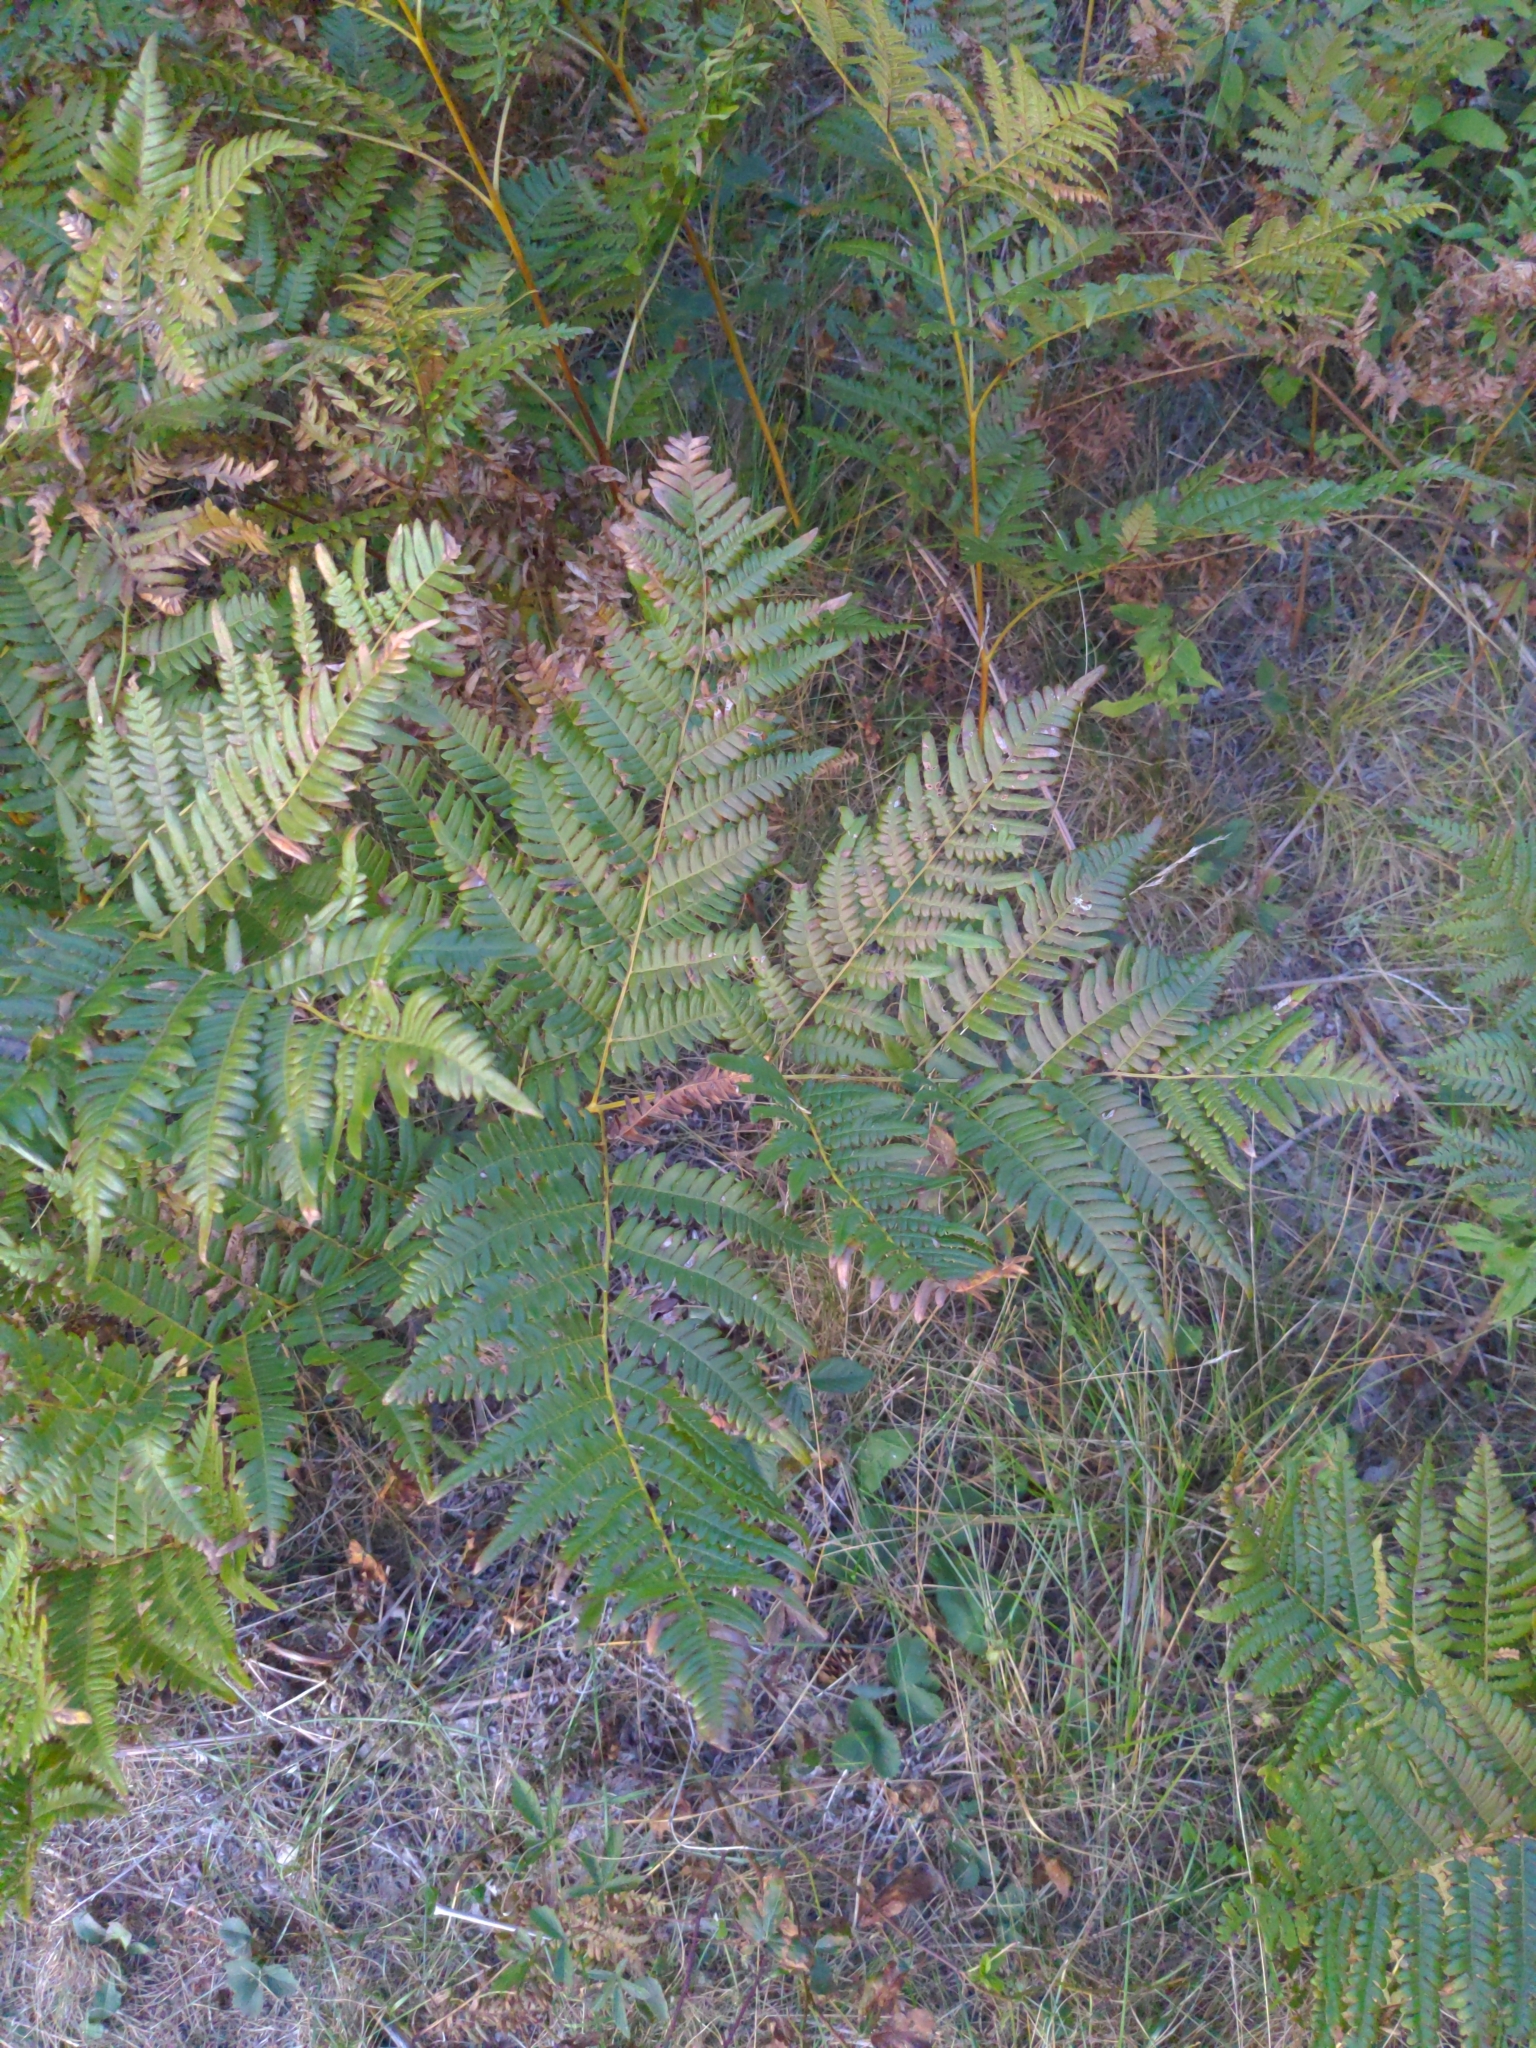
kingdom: Plantae
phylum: Tracheophyta
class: Polypodiopsida
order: Polypodiales
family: Dennstaedtiaceae
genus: Pteridium
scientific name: Pteridium aquilinum
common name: Bracken
